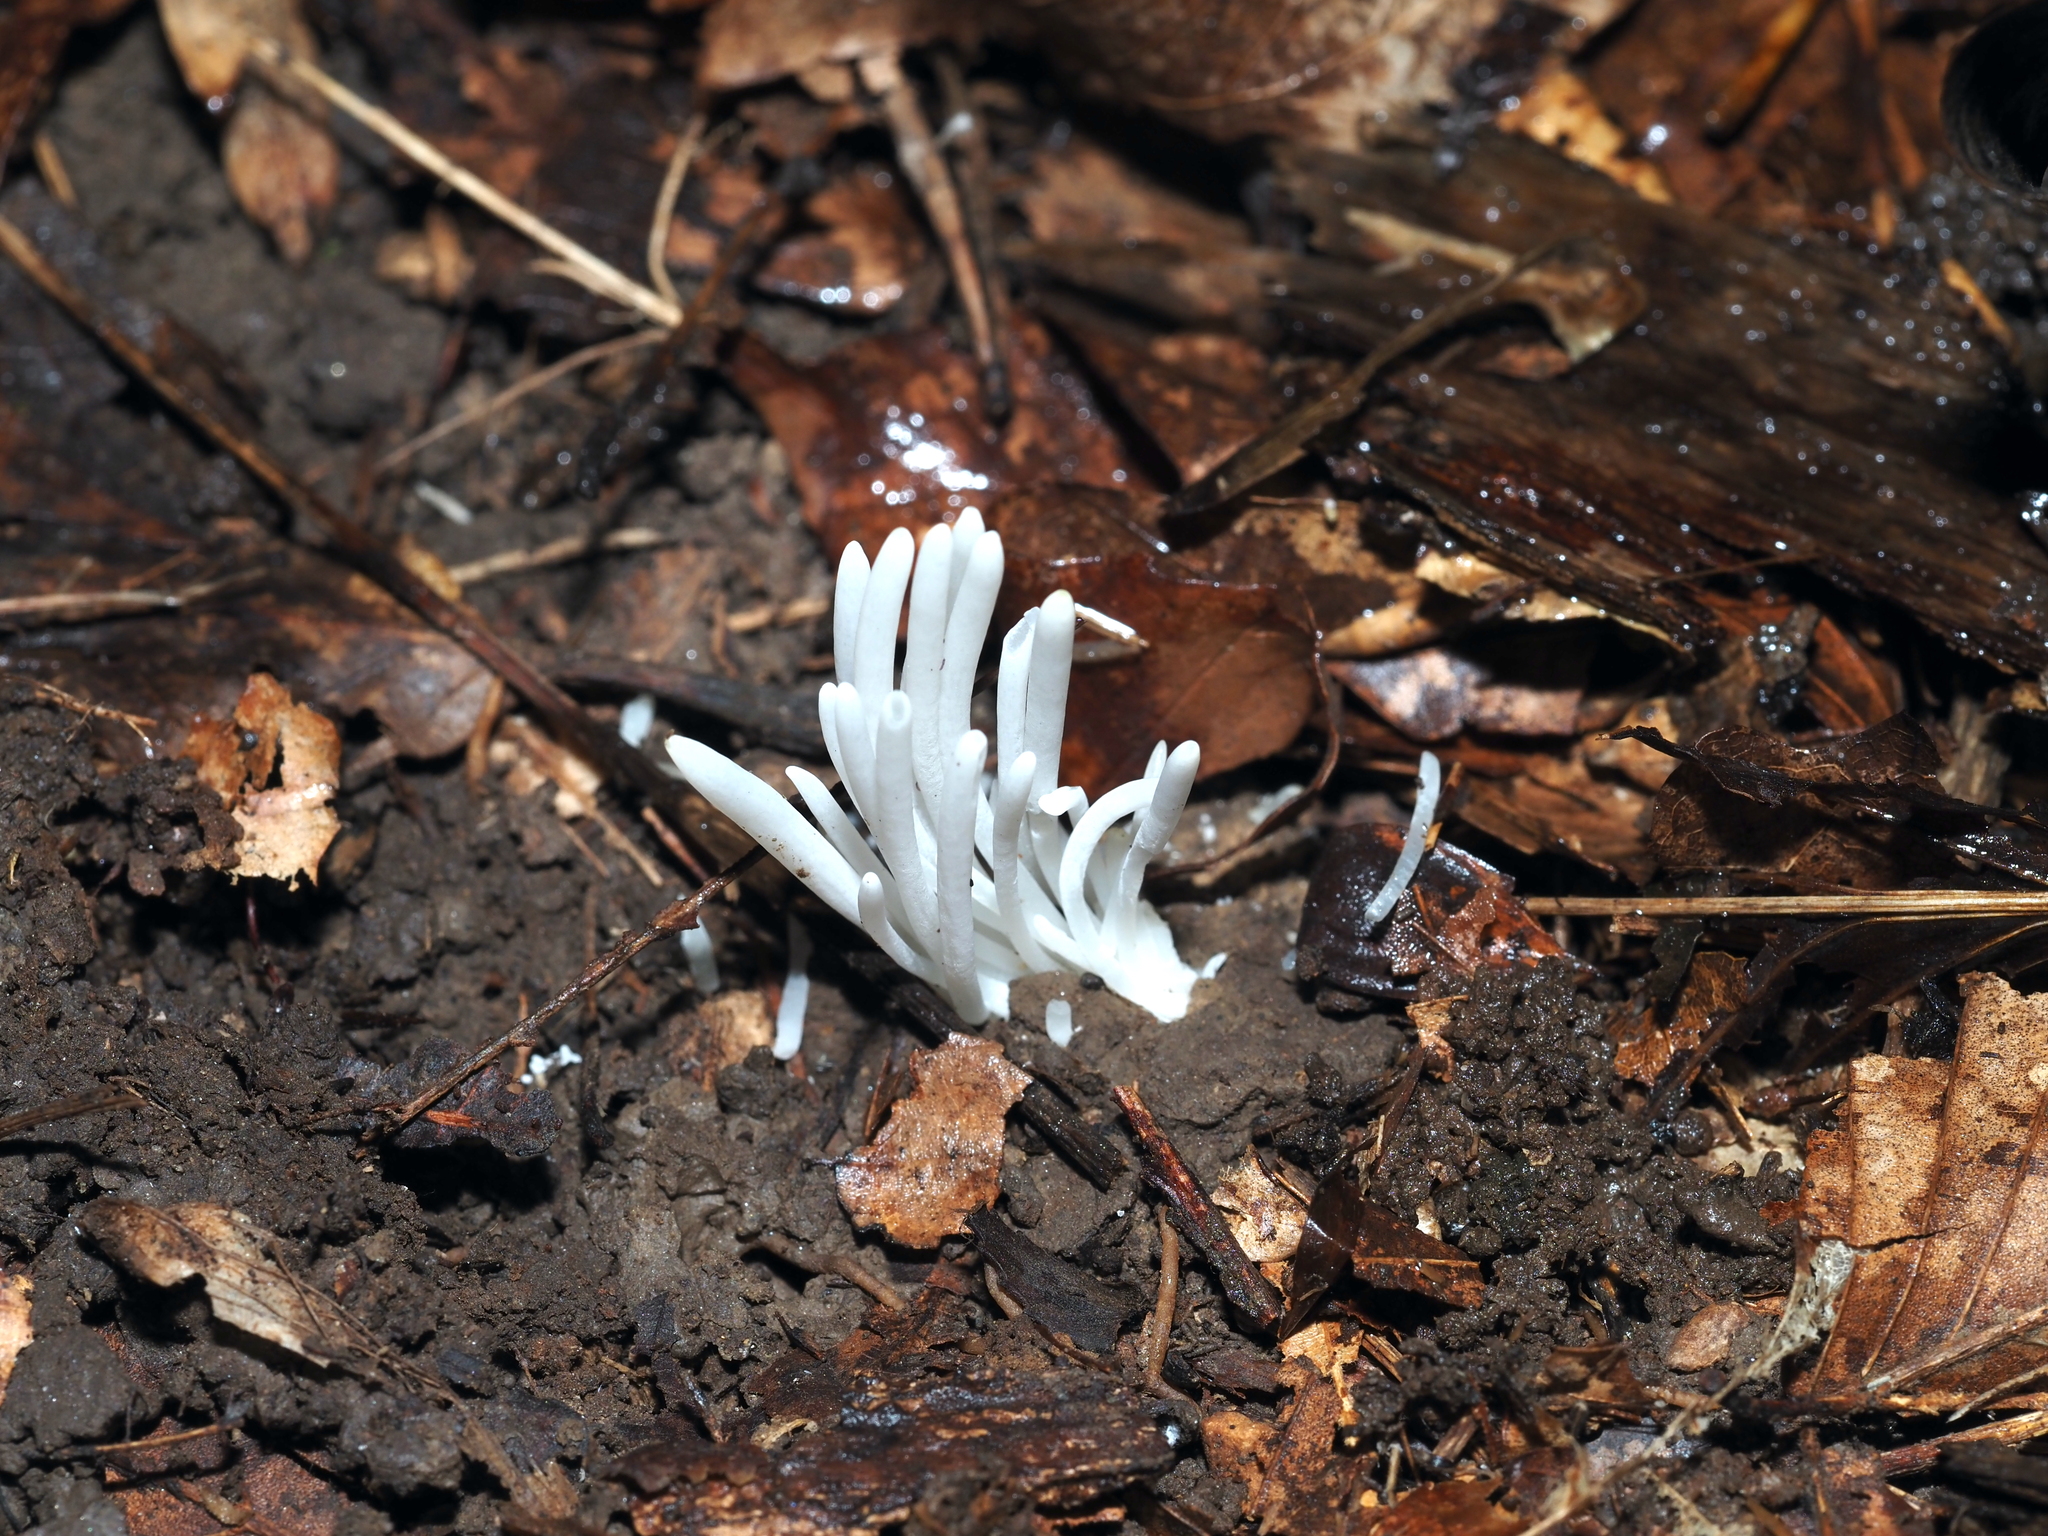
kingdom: Fungi
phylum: Basidiomycota
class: Agaricomycetes
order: Agaricales
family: Clavariaceae
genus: Clavaria
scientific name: Clavaria fragilis
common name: White spindles
